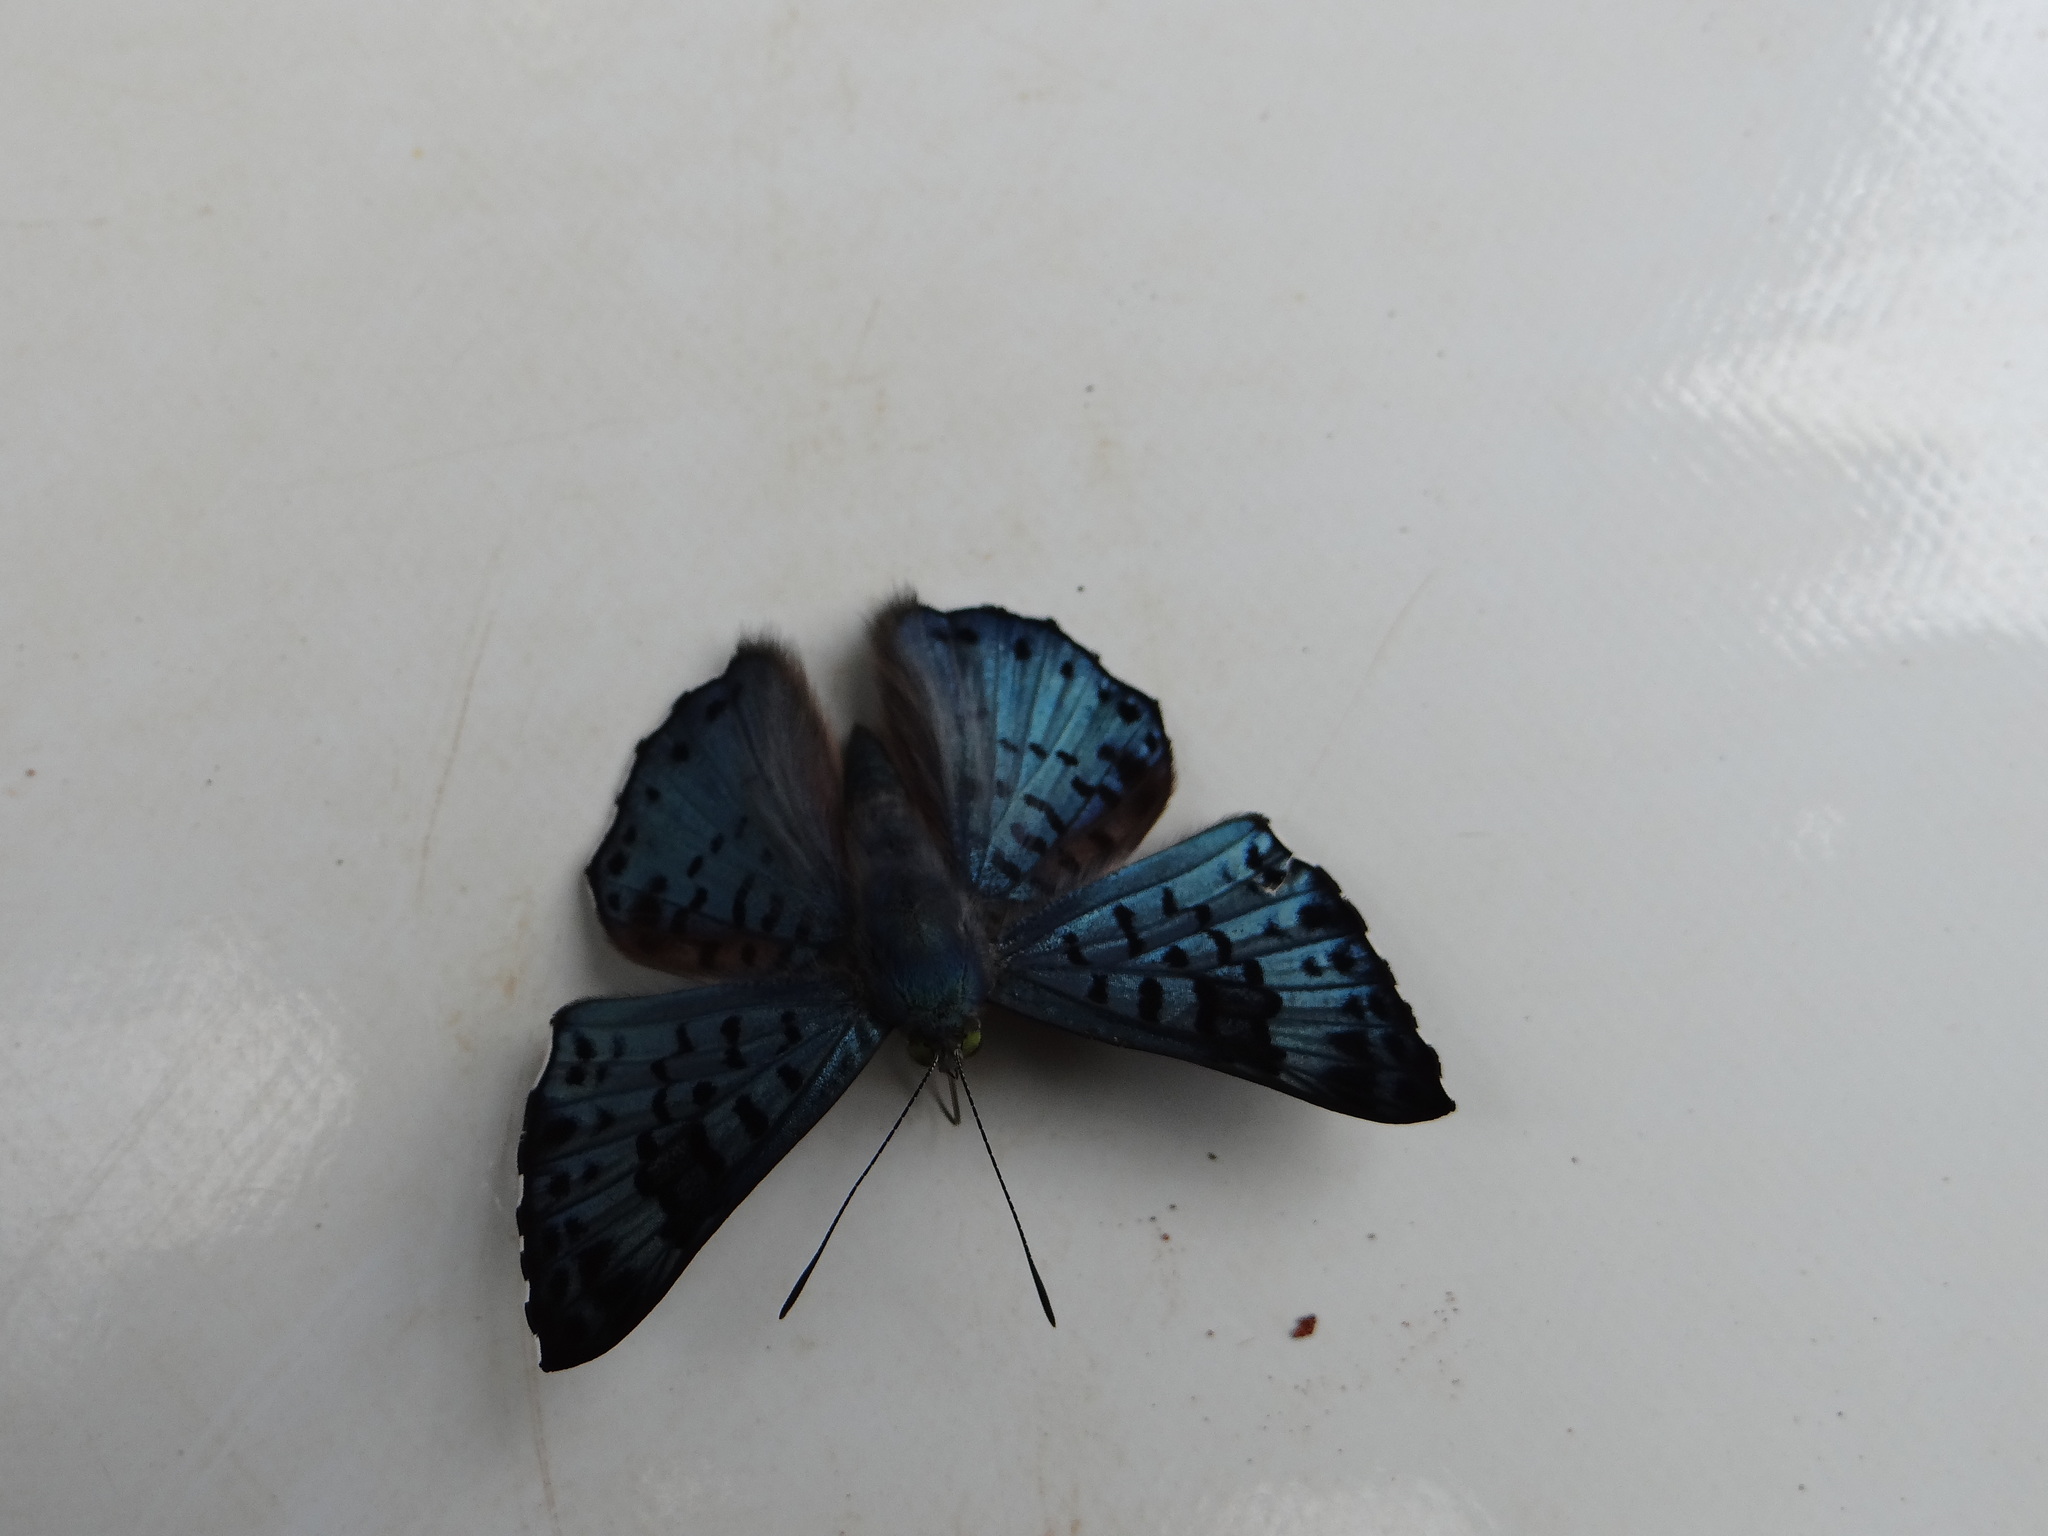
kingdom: Animalia
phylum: Arthropoda
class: Insecta
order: Lepidoptera
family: Riodinidae
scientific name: Riodinidae
